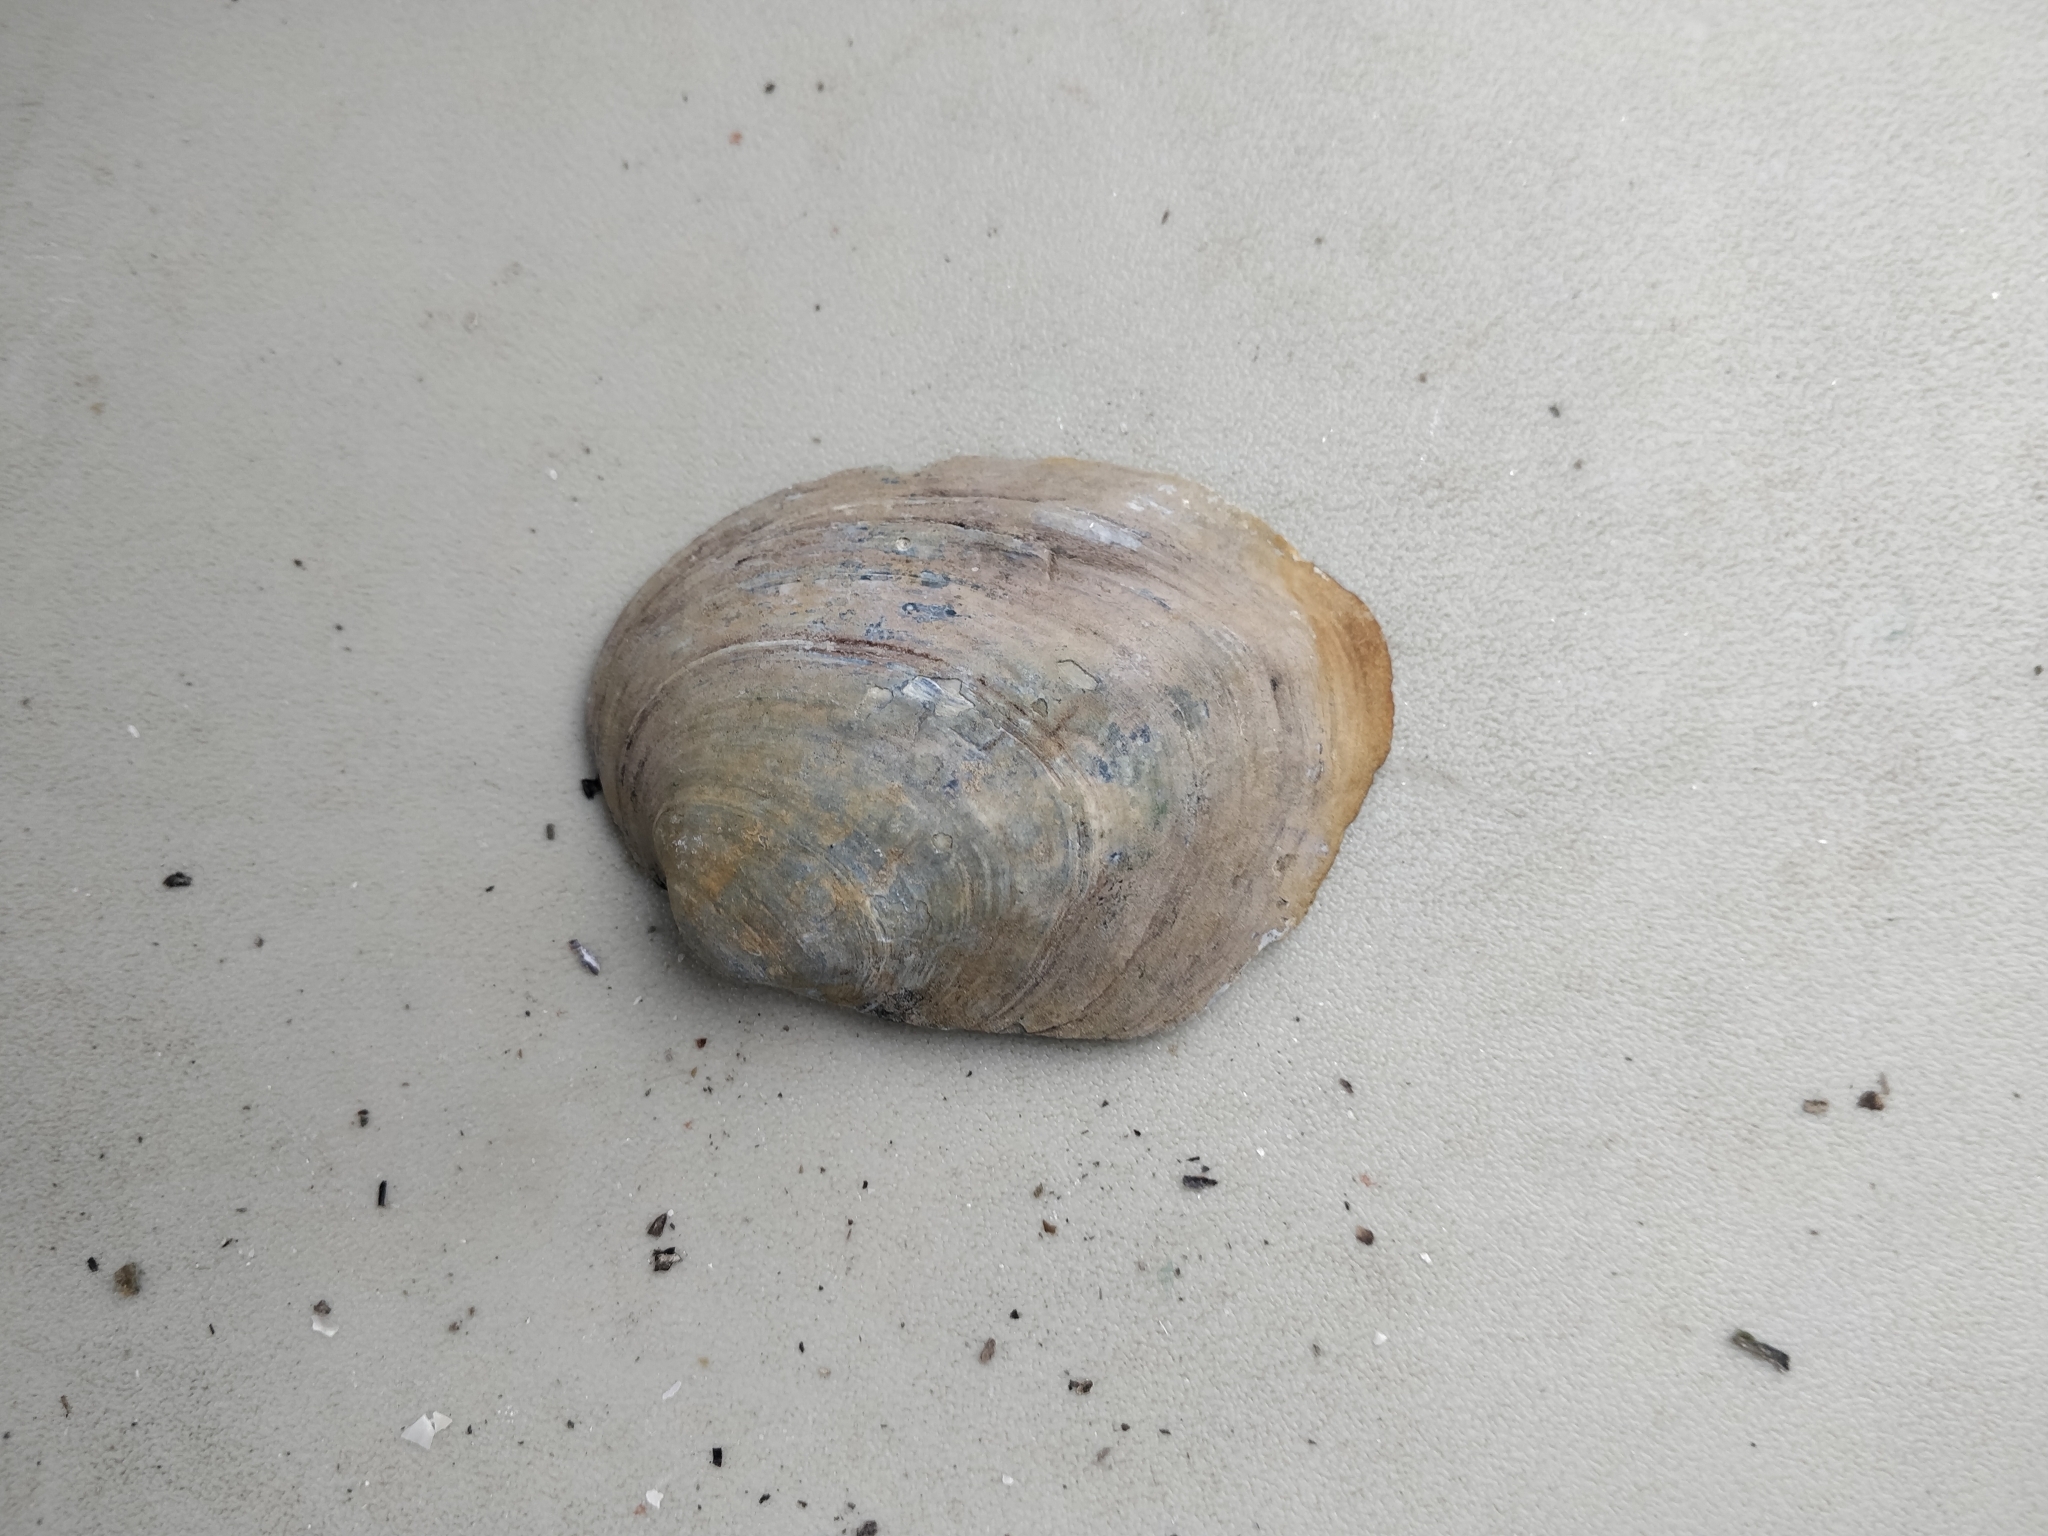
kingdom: Animalia
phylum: Mollusca
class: Bivalvia
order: Unionida
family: Unionidae
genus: Amblema
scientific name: Amblema plicata
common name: Threeridge
